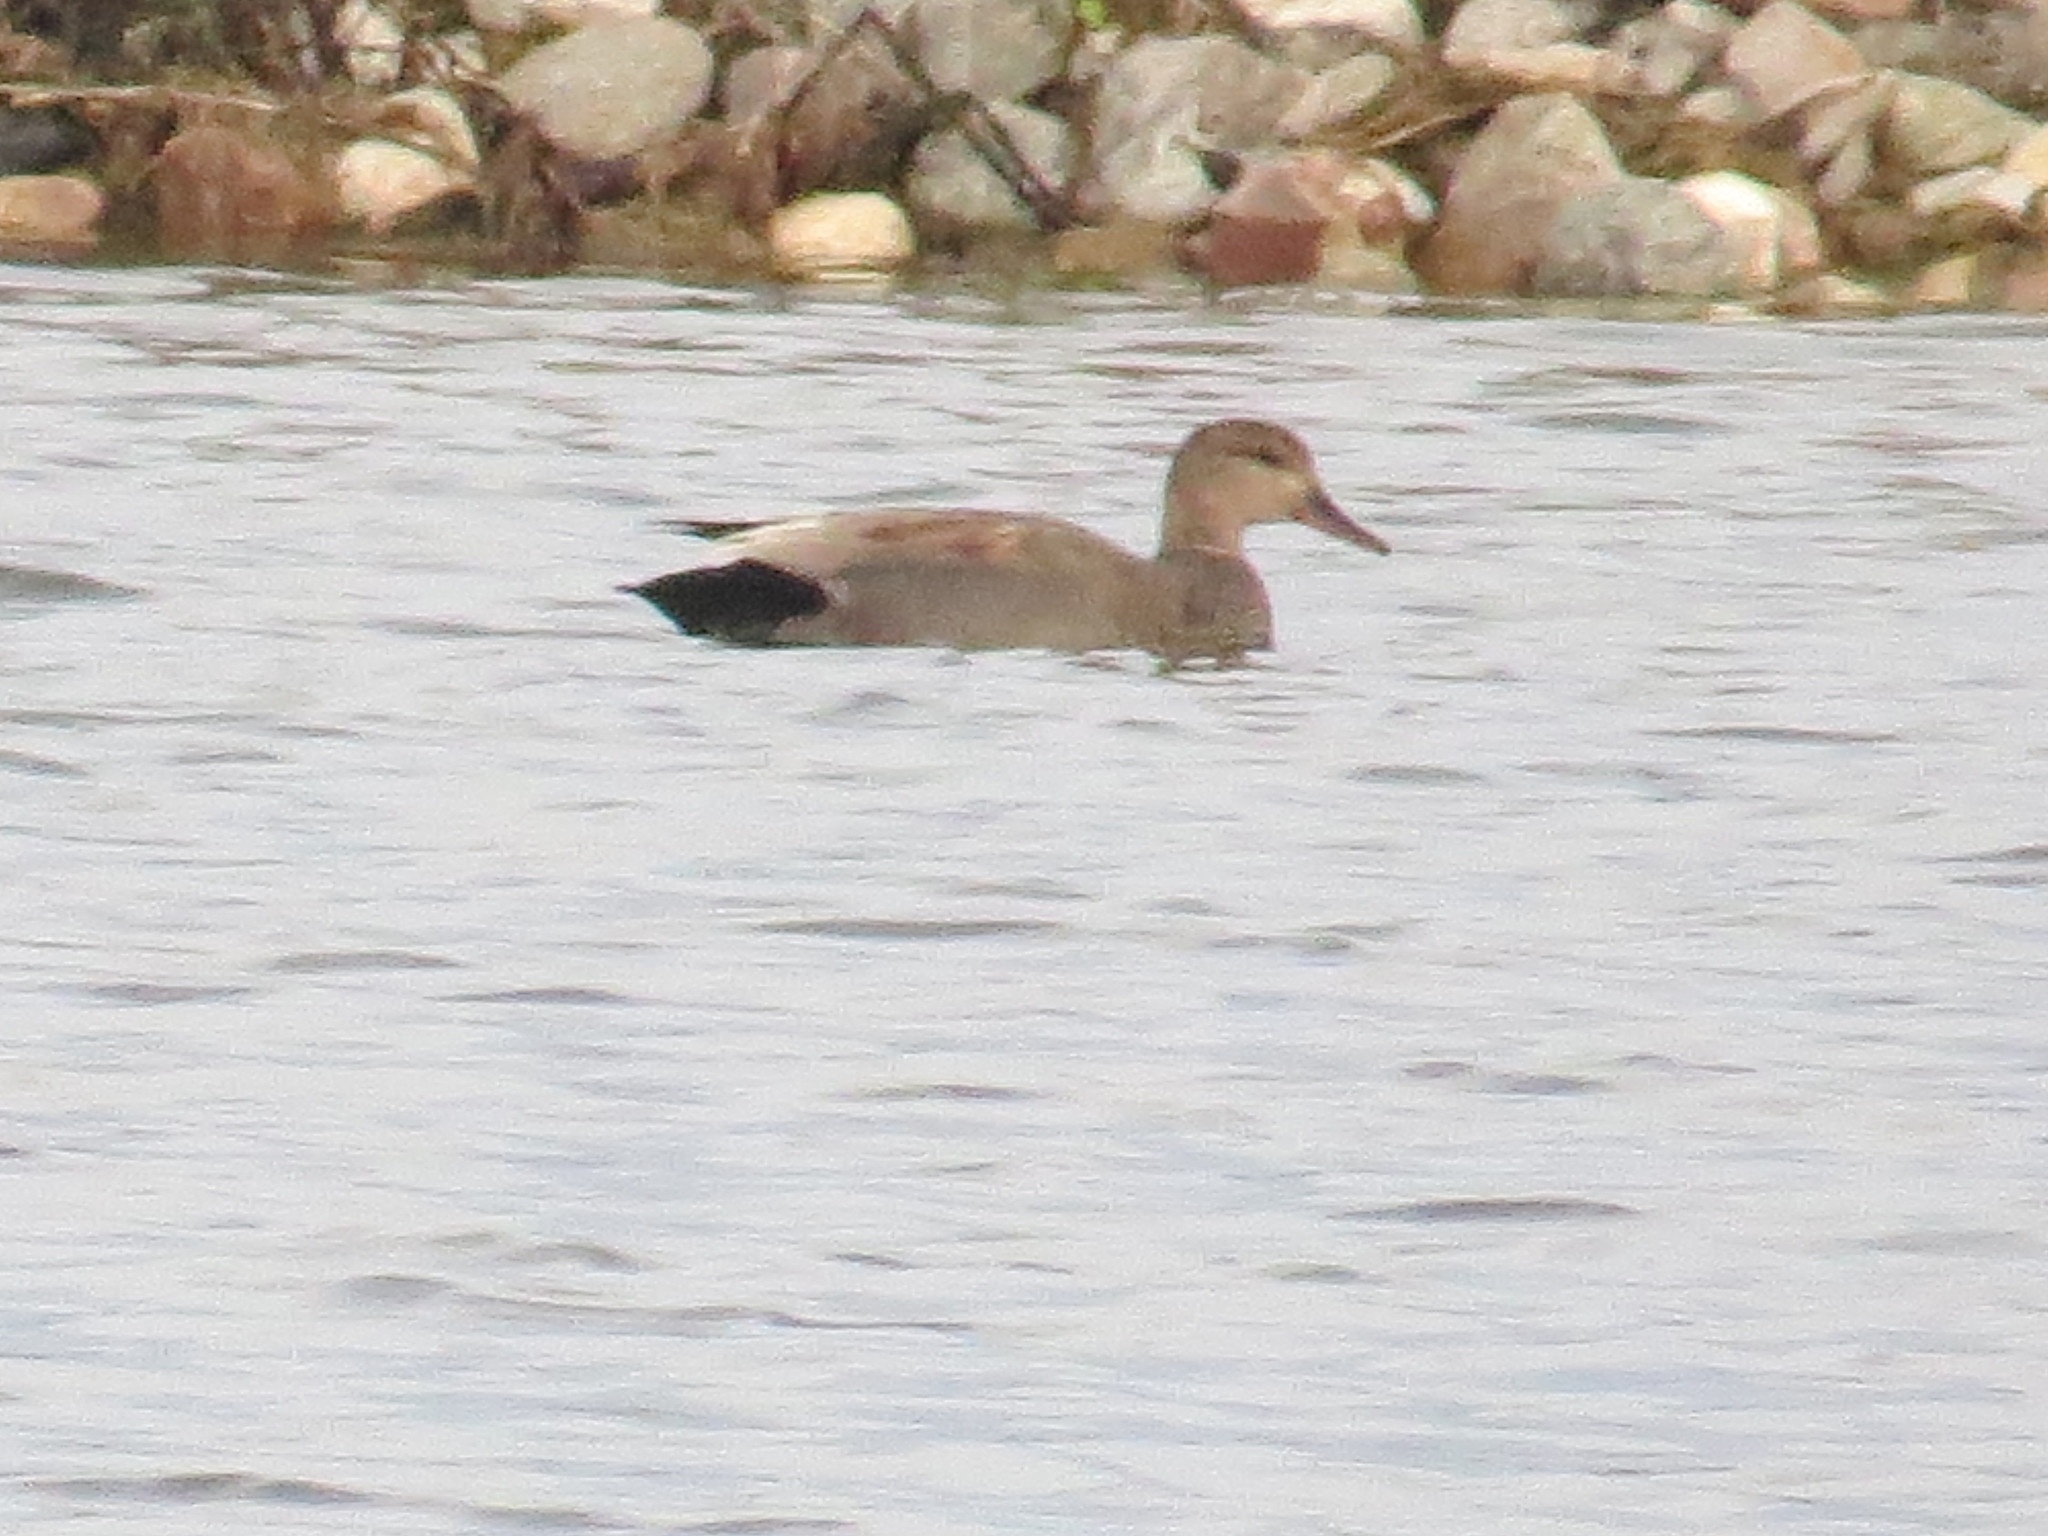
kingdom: Animalia
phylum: Chordata
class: Aves
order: Anseriformes
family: Anatidae
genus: Mareca
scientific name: Mareca strepera
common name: Gadwall
